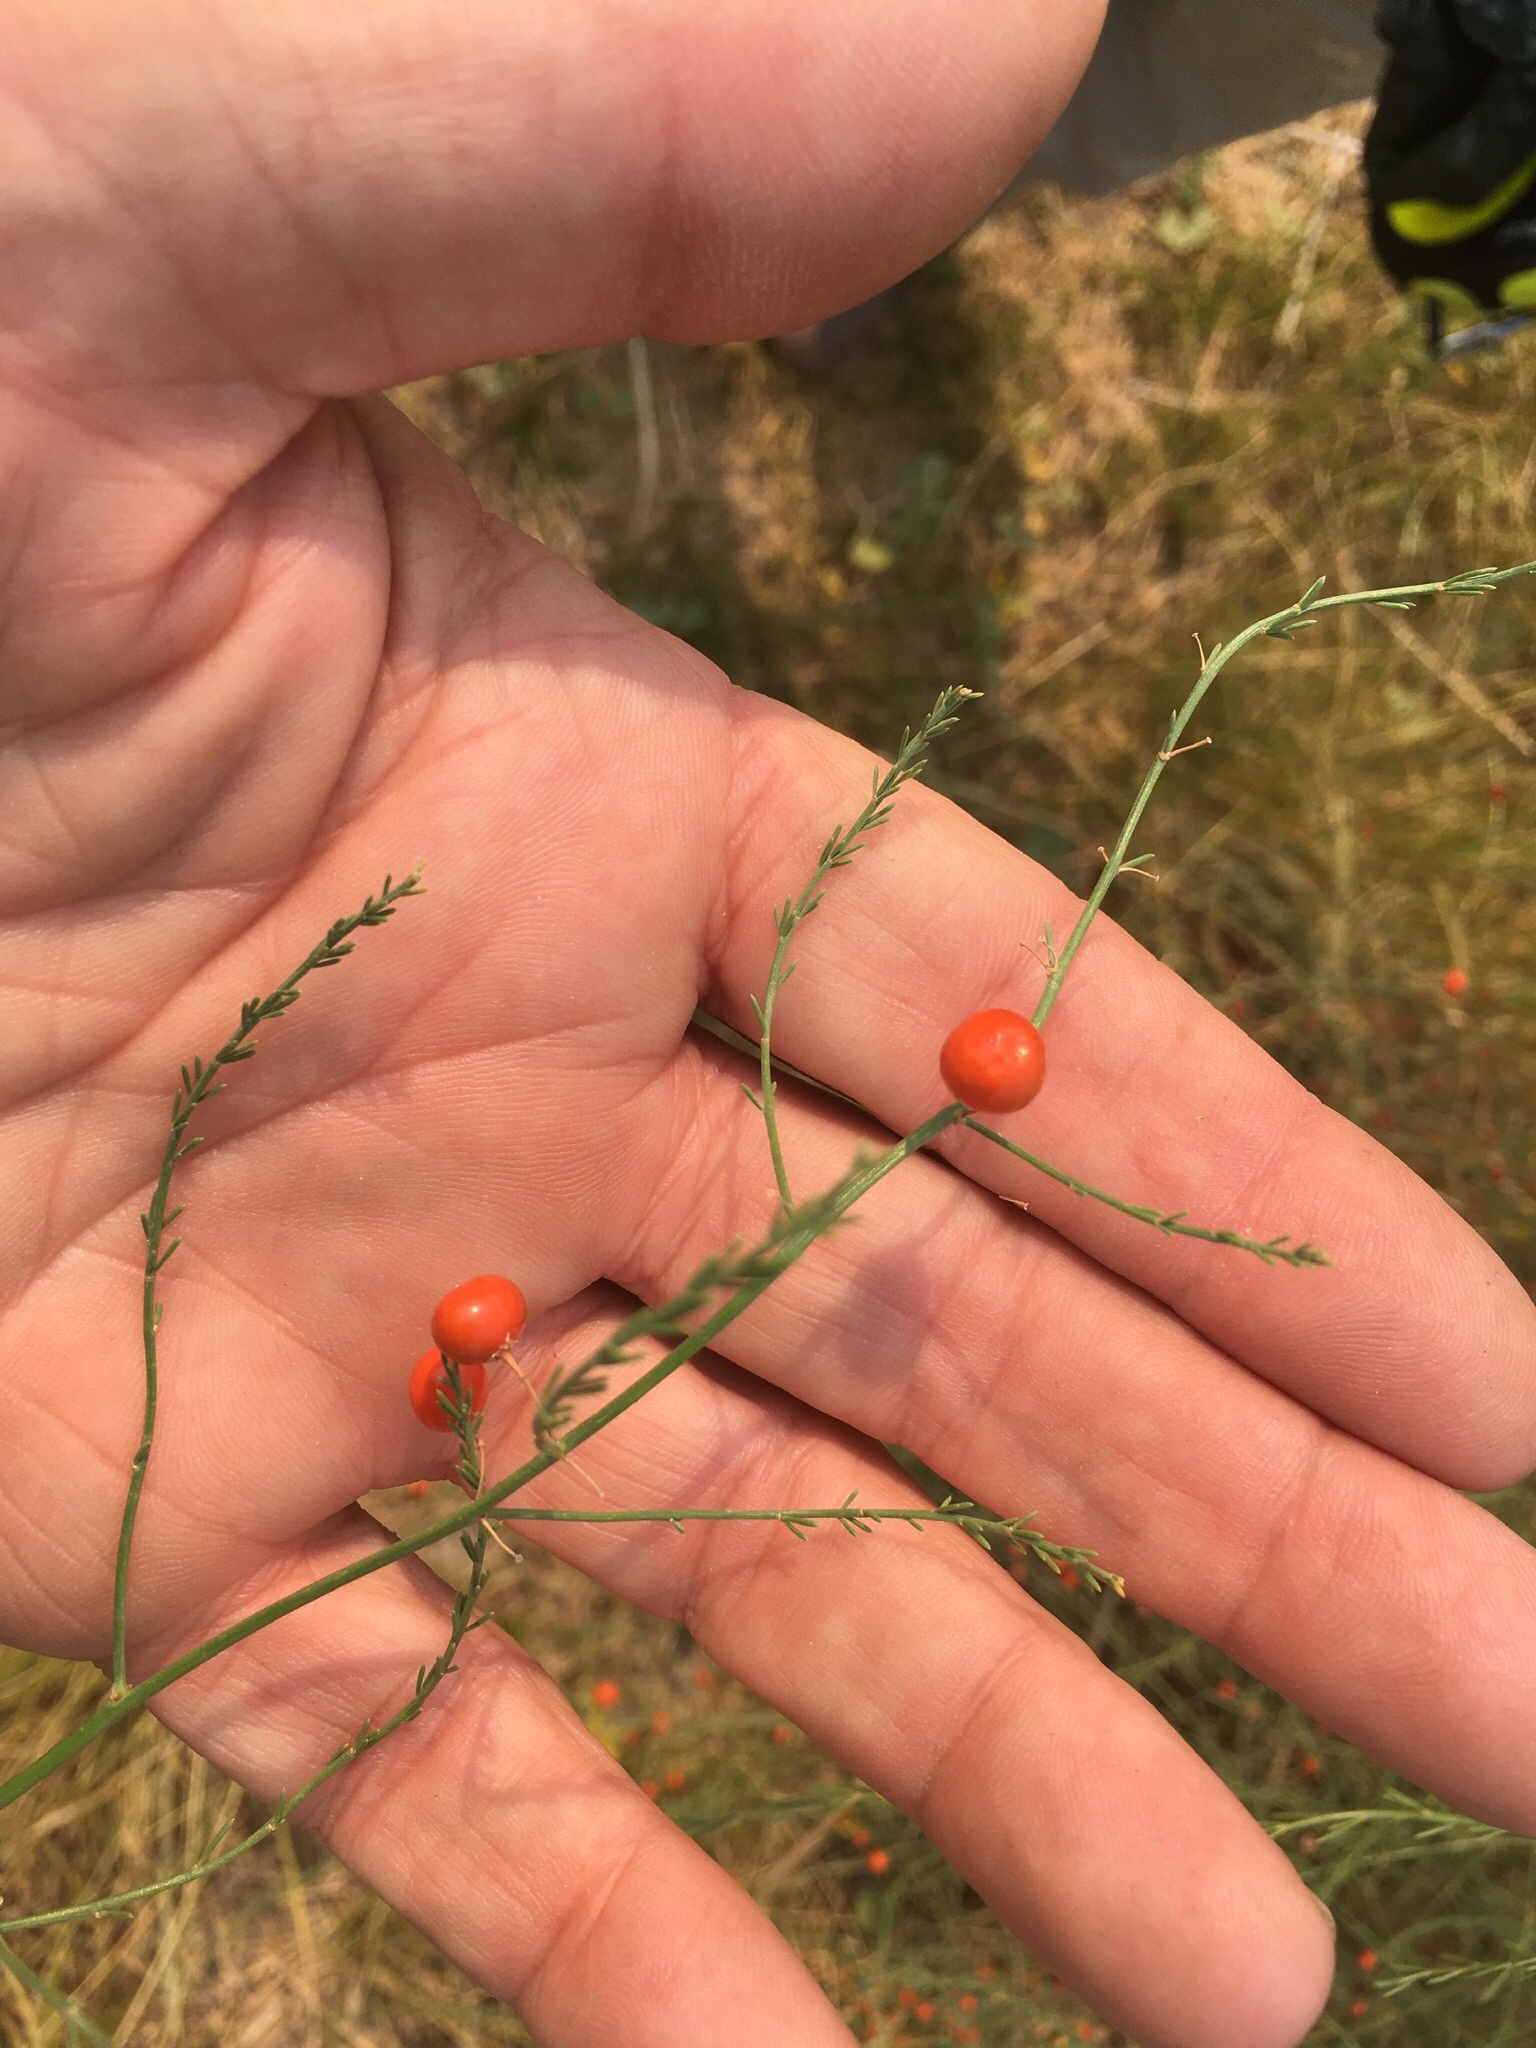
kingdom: Plantae
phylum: Tracheophyta
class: Liliopsida
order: Asparagales
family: Asparagaceae
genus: Asparagus
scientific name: Asparagus officinalis
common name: Garden asparagus
